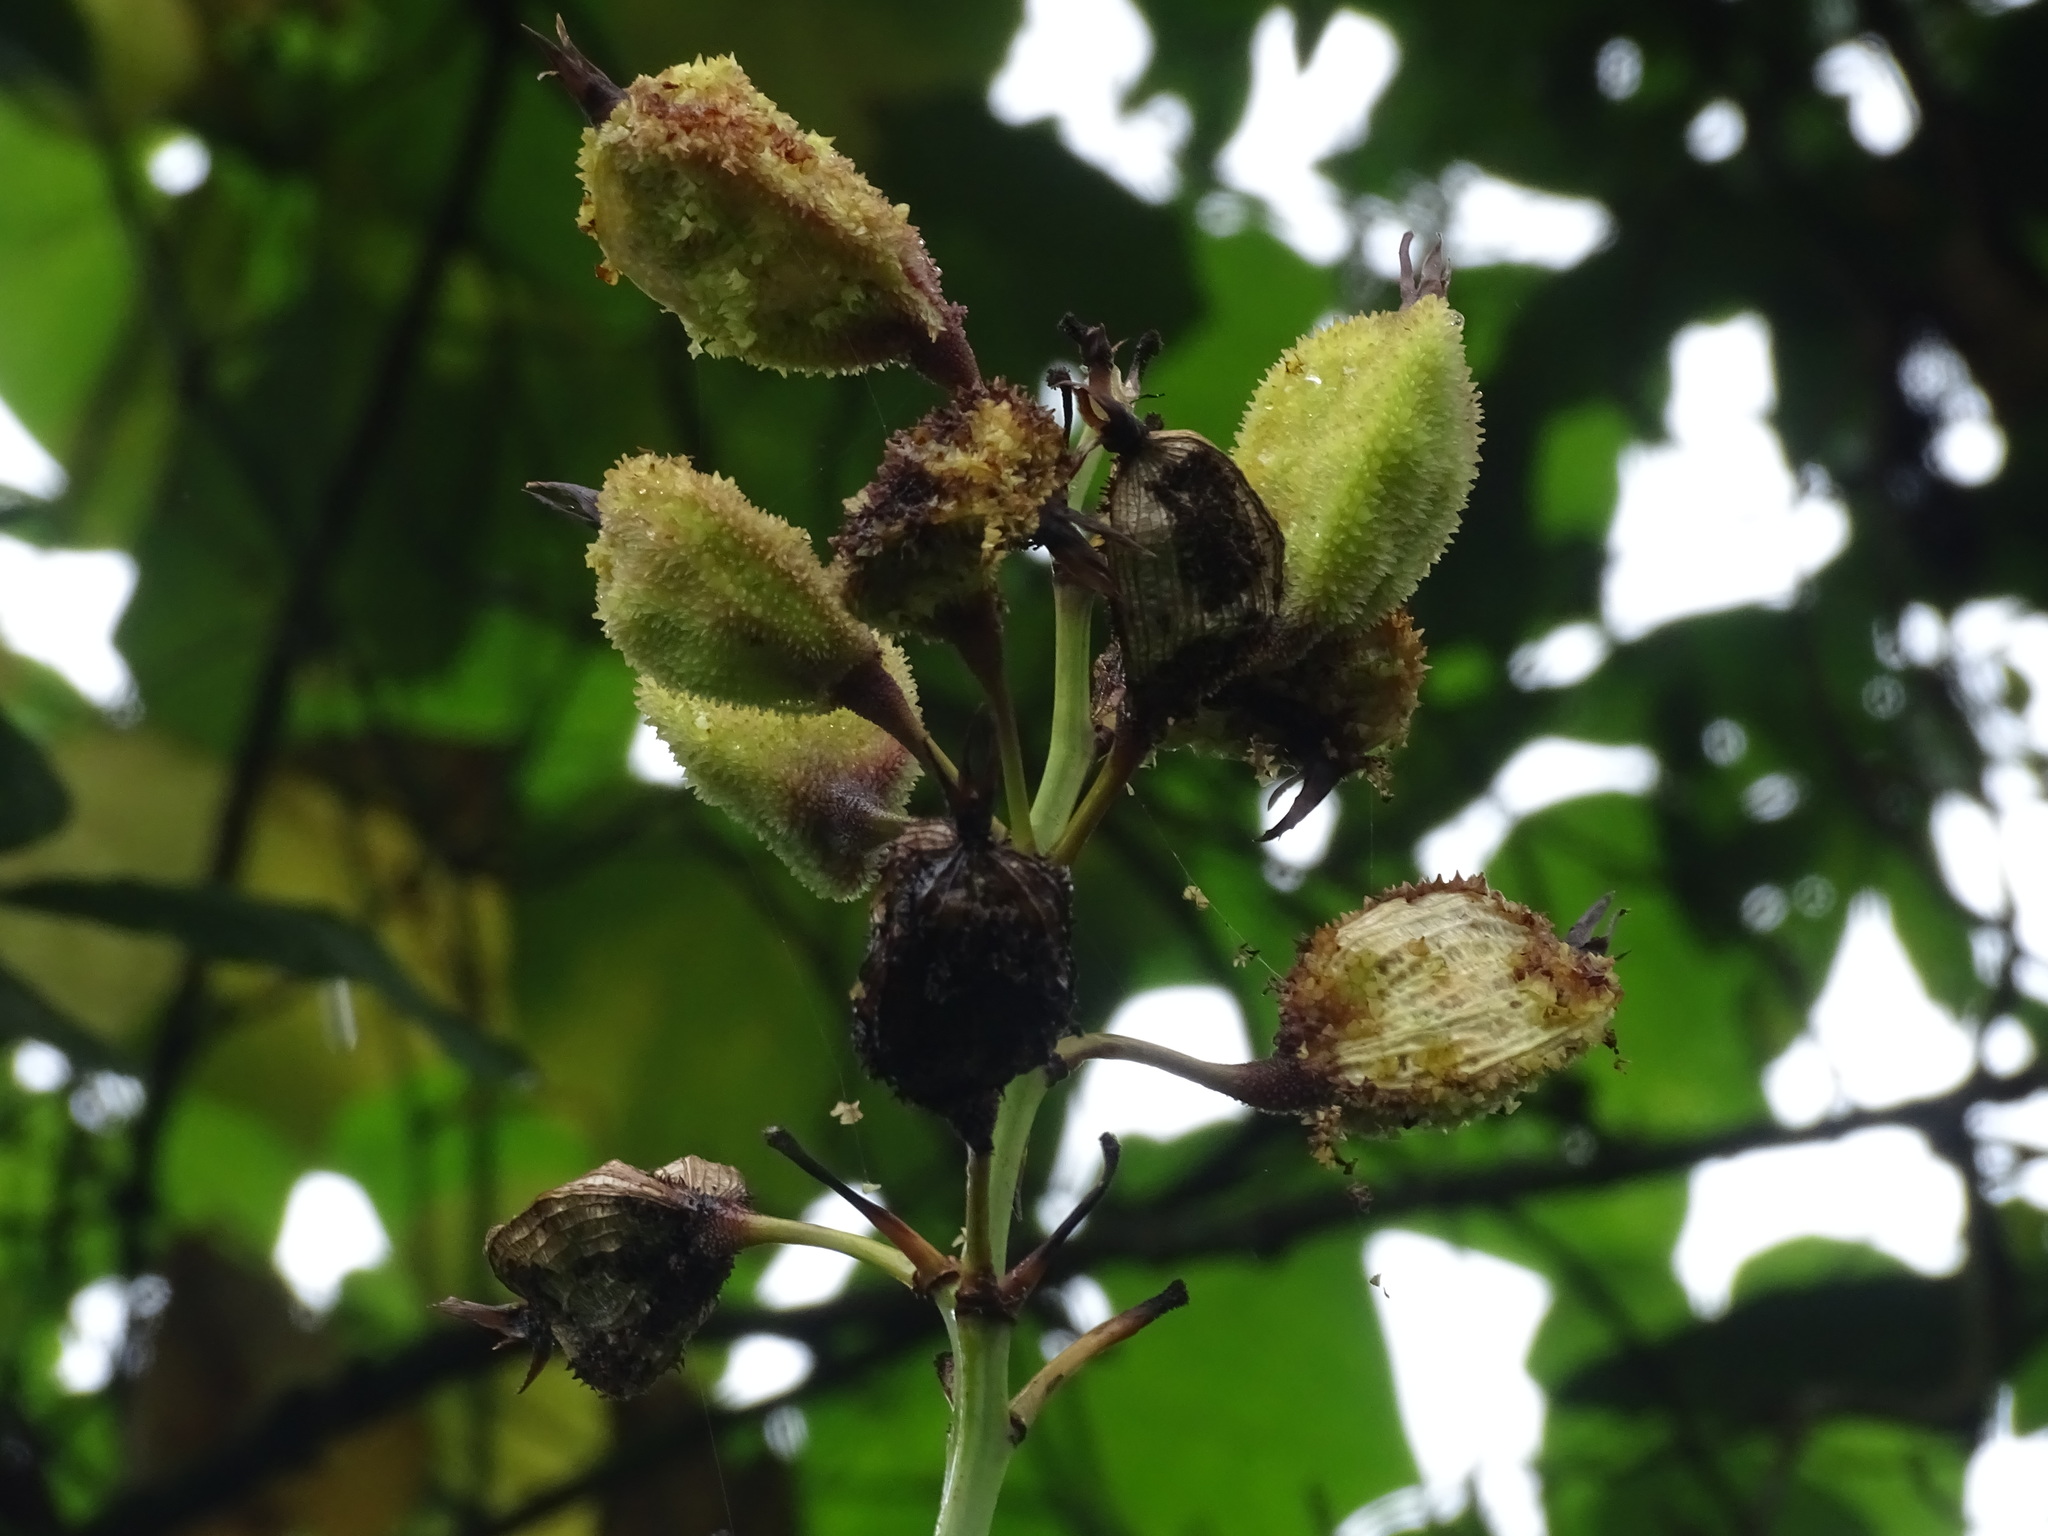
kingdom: Plantae
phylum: Tracheophyta
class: Liliopsida
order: Zingiberales
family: Cannaceae
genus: Canna
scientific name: Canna tuerckheimii
